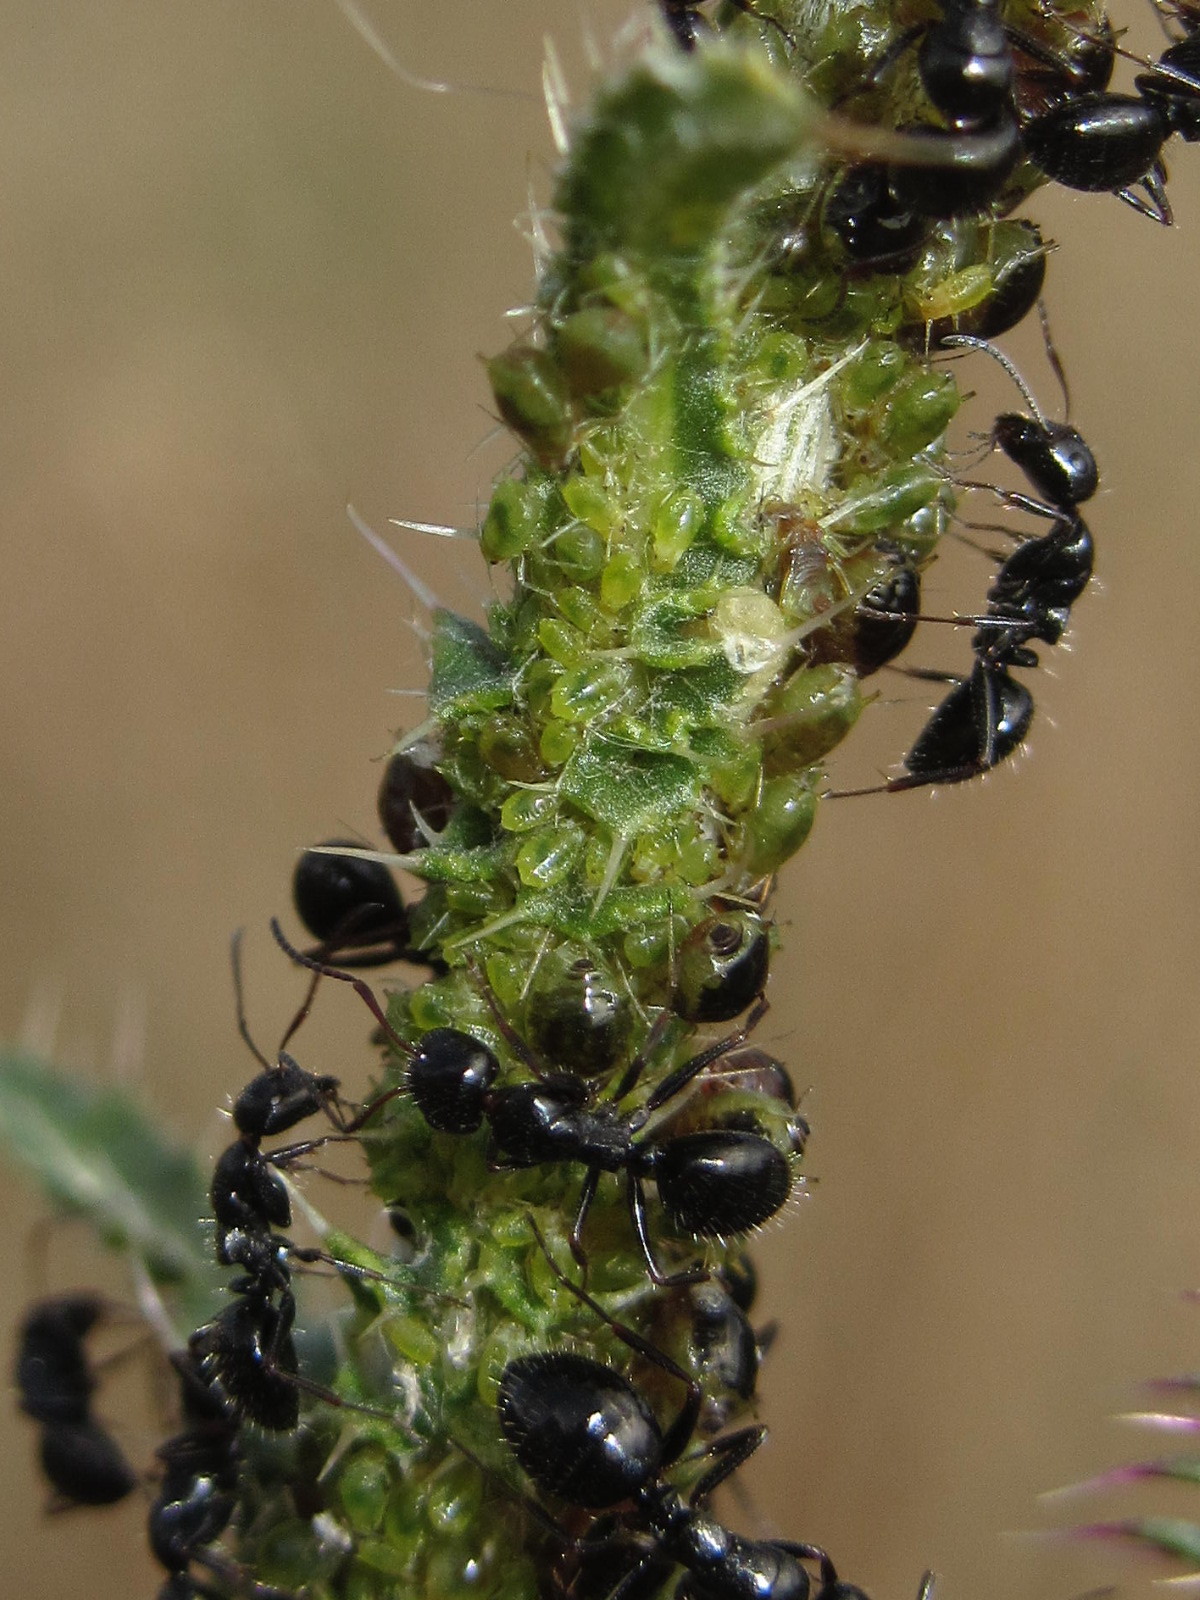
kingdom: Animalia
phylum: Arthropoda
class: Insecta
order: Hymenoptera
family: Formicidae
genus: Camponotus
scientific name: Camponotus piceus
